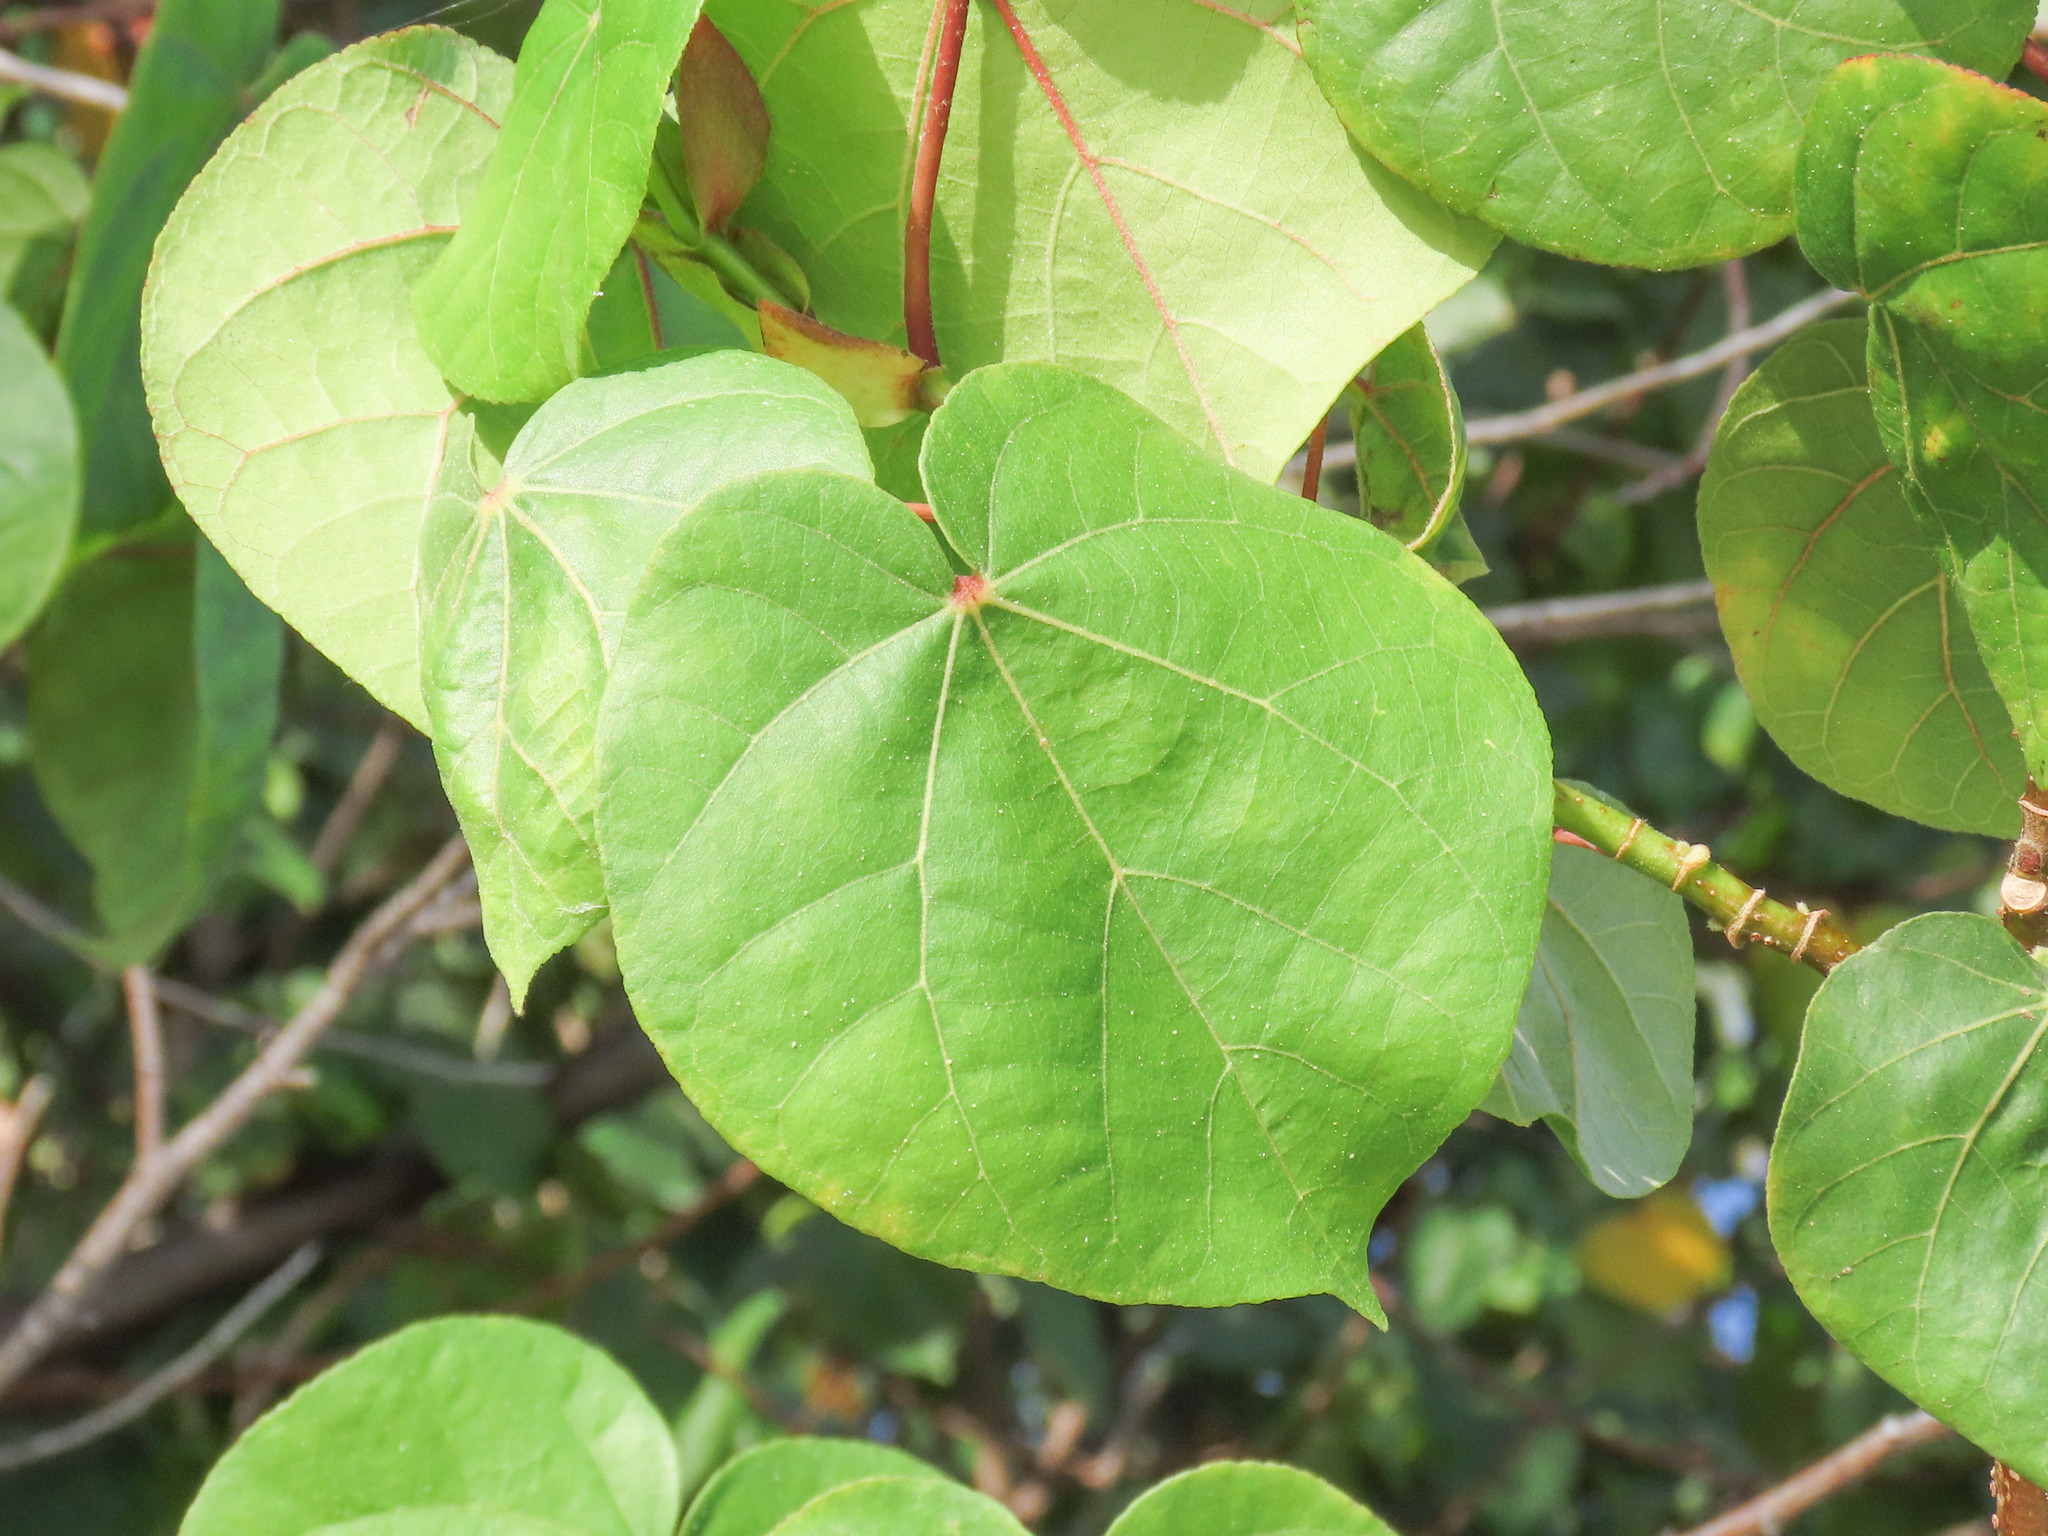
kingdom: Plantae
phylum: Tracheophyta
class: Magnoliopsida
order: Malvales
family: Malvaceae
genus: Talipariti
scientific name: Talipariti tiliaceum
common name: Sea hibiscus
